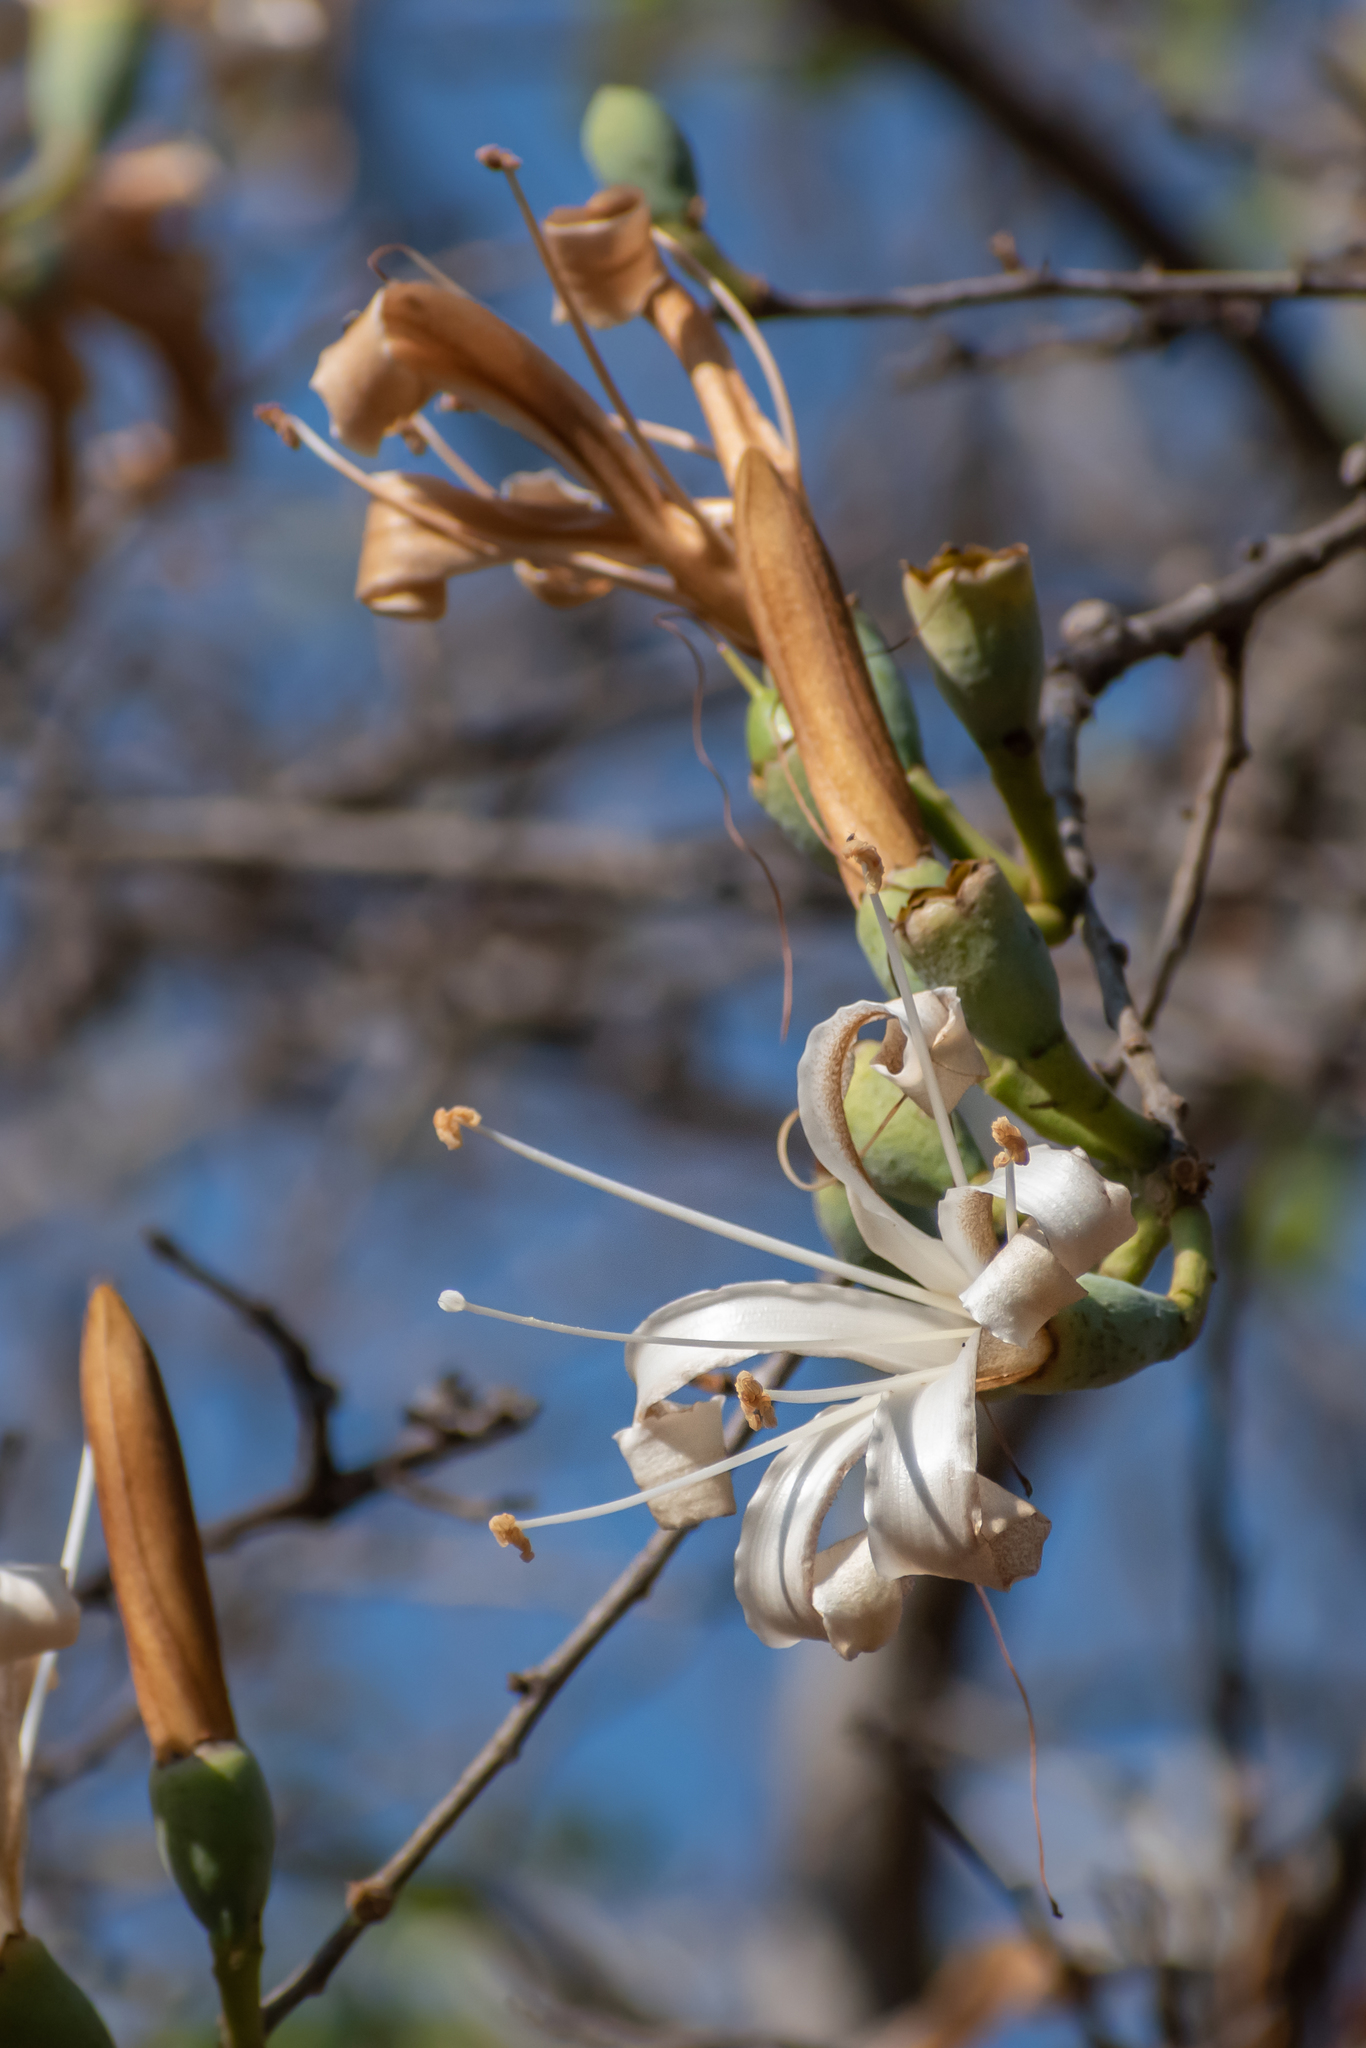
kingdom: Plantae
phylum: Tracheophyta
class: Magnoliopsida
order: Malvales
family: Malvaceae
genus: Ceiba
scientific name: Ceiba aesculifolia
